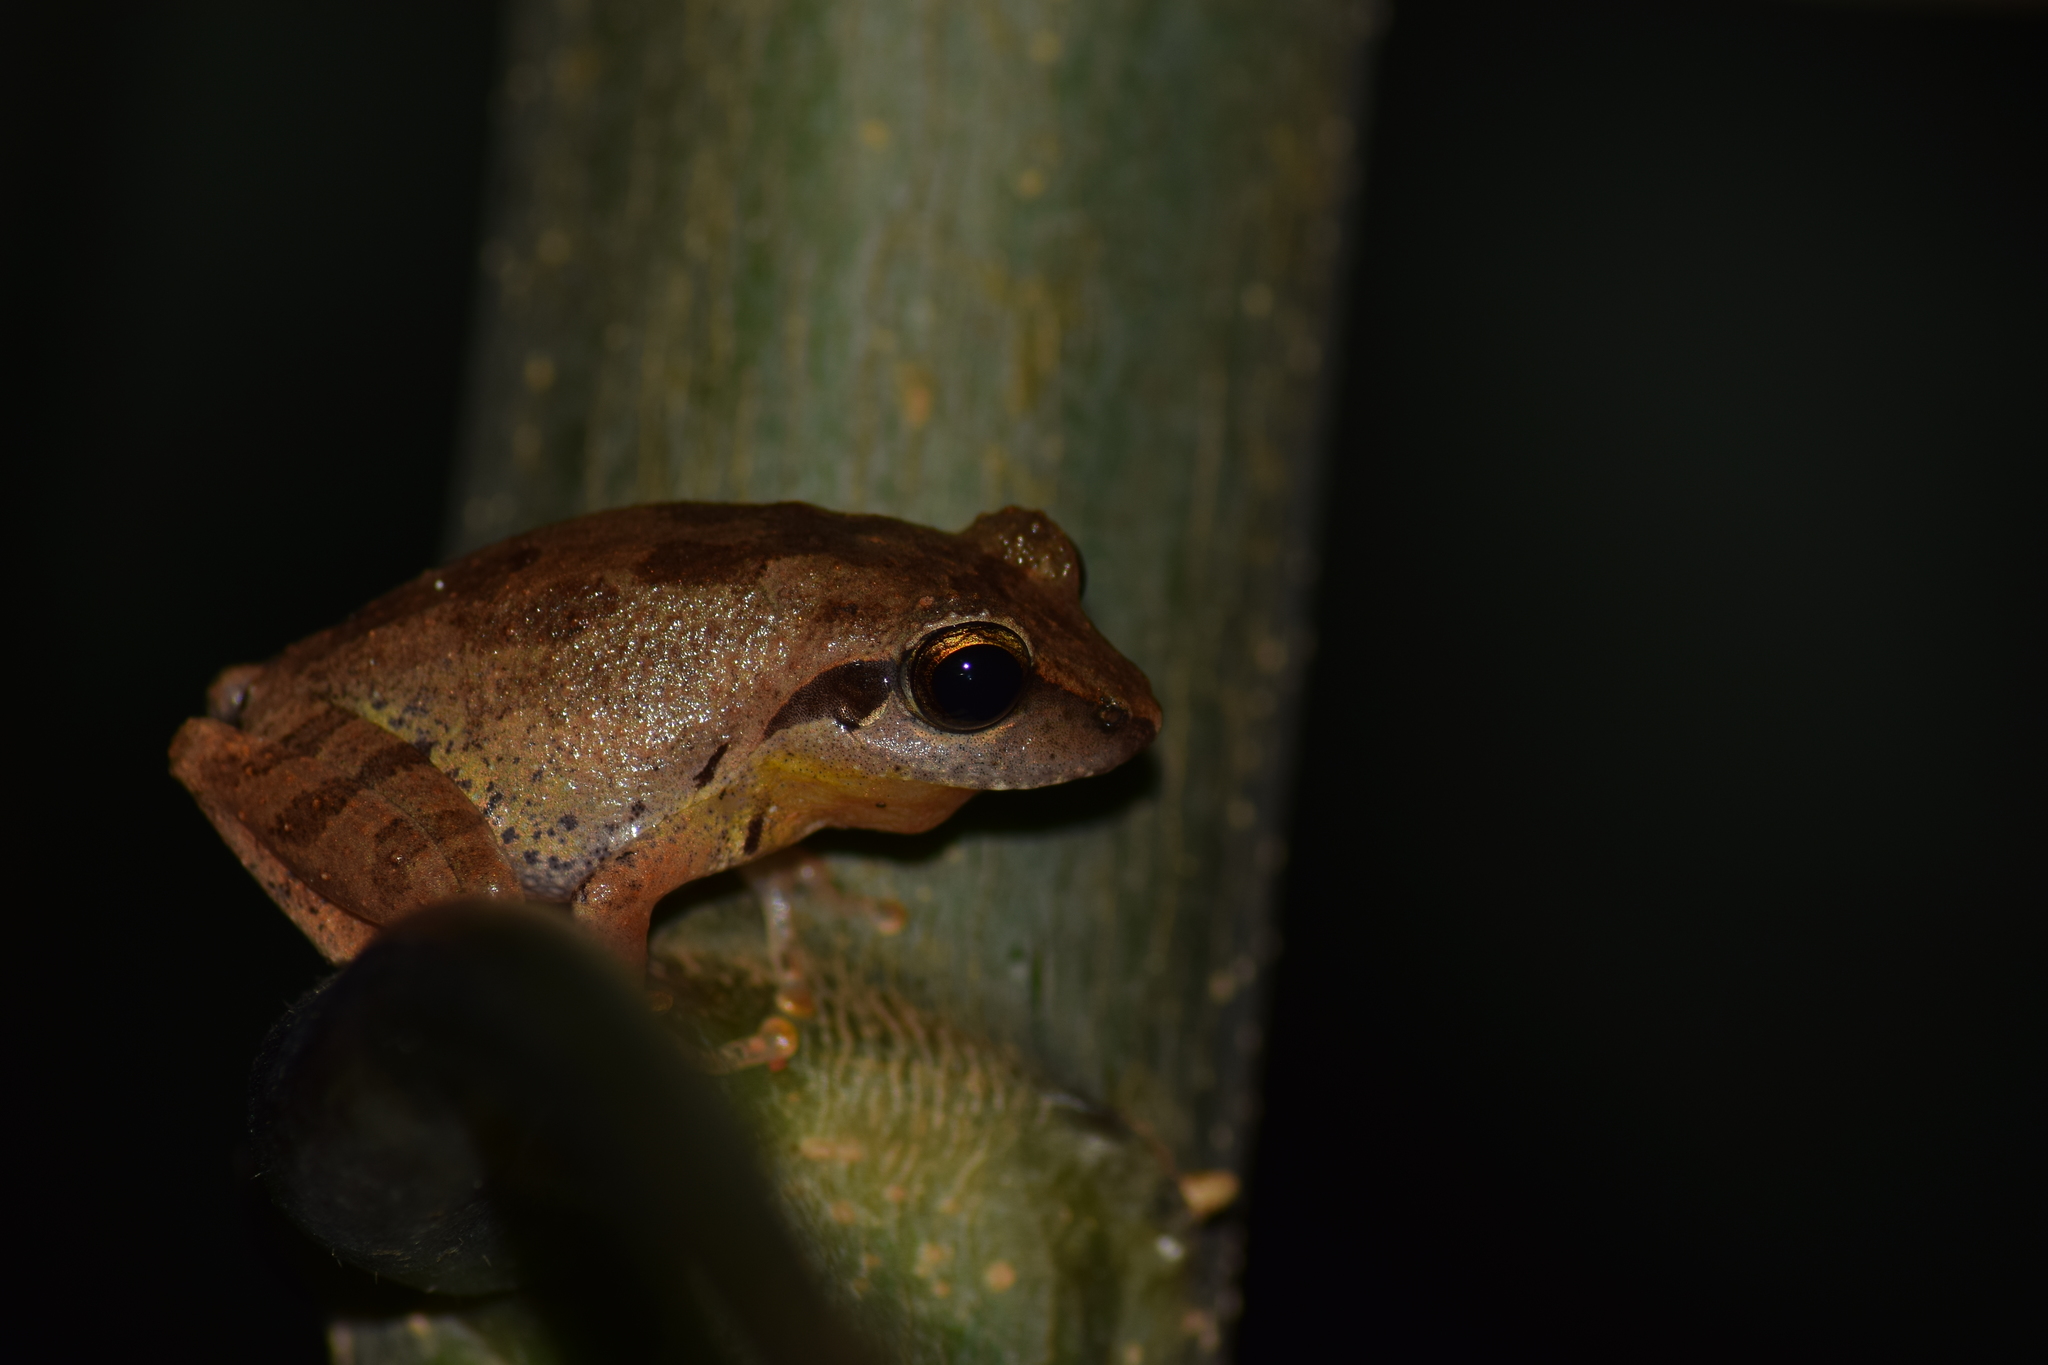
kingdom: Animalia
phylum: Chordata
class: Amphibia
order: Anura
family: Rhacophoridae
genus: Pseudophilautus
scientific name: Pseudophilautus wynaadensis
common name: Dark-eared bush frog
